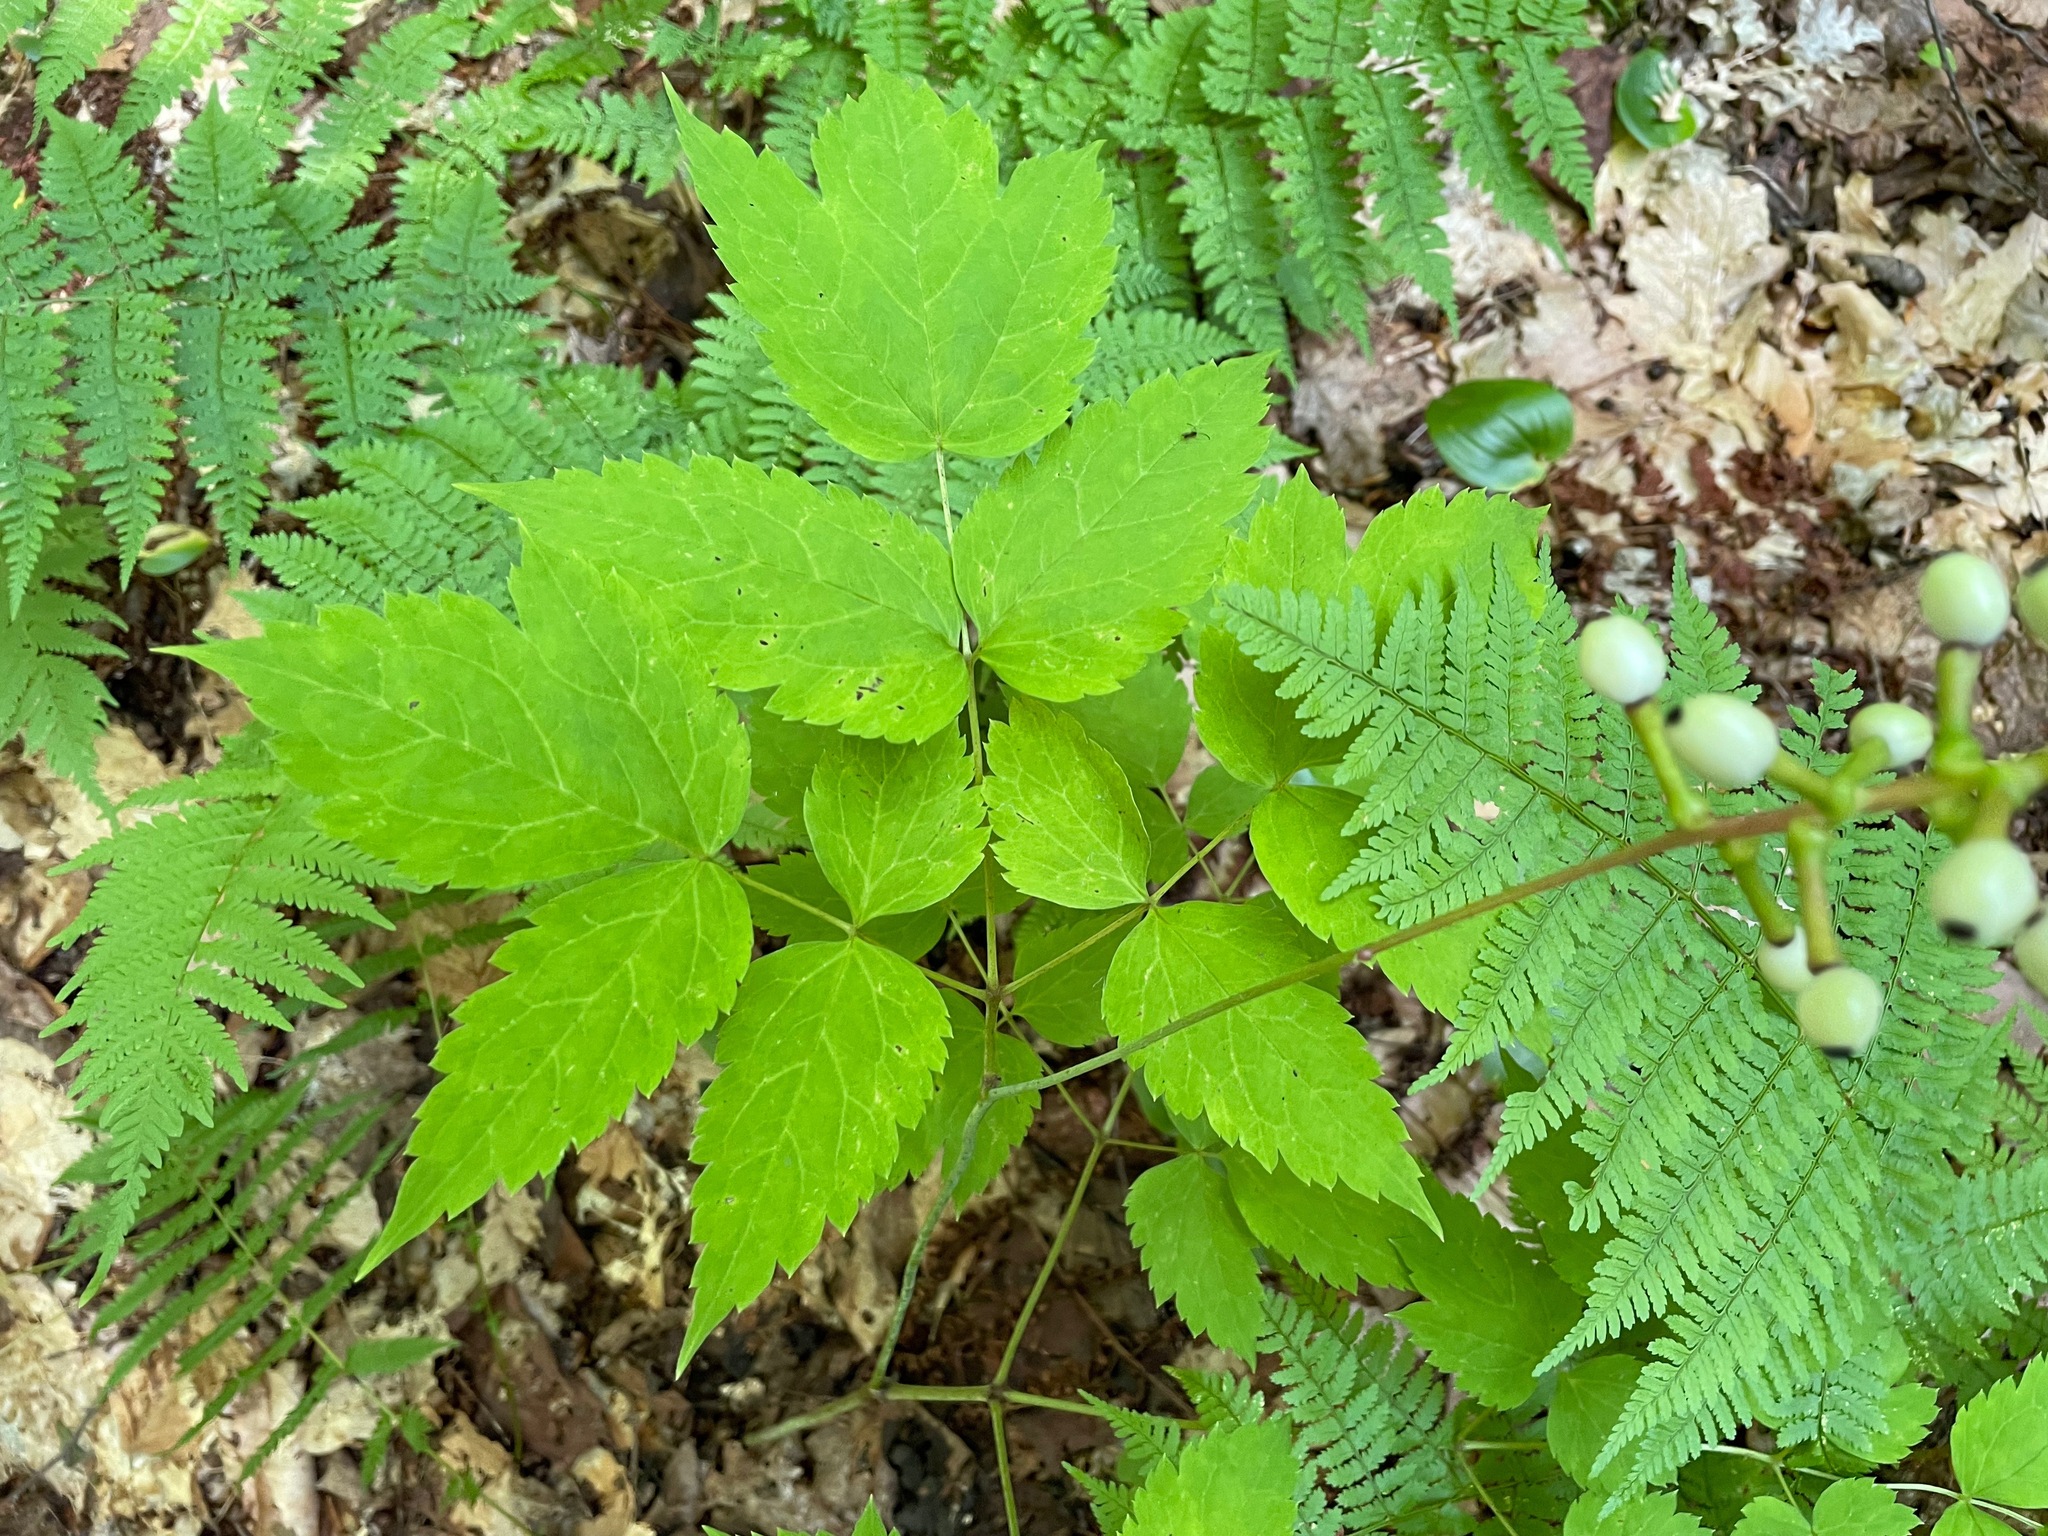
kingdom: Plantae
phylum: Tracheophyta
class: Magnoliopsida
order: Ranunculales
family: Ranunculaceae
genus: Actaea
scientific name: Actaea pachypoda
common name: Doll's-eyes
